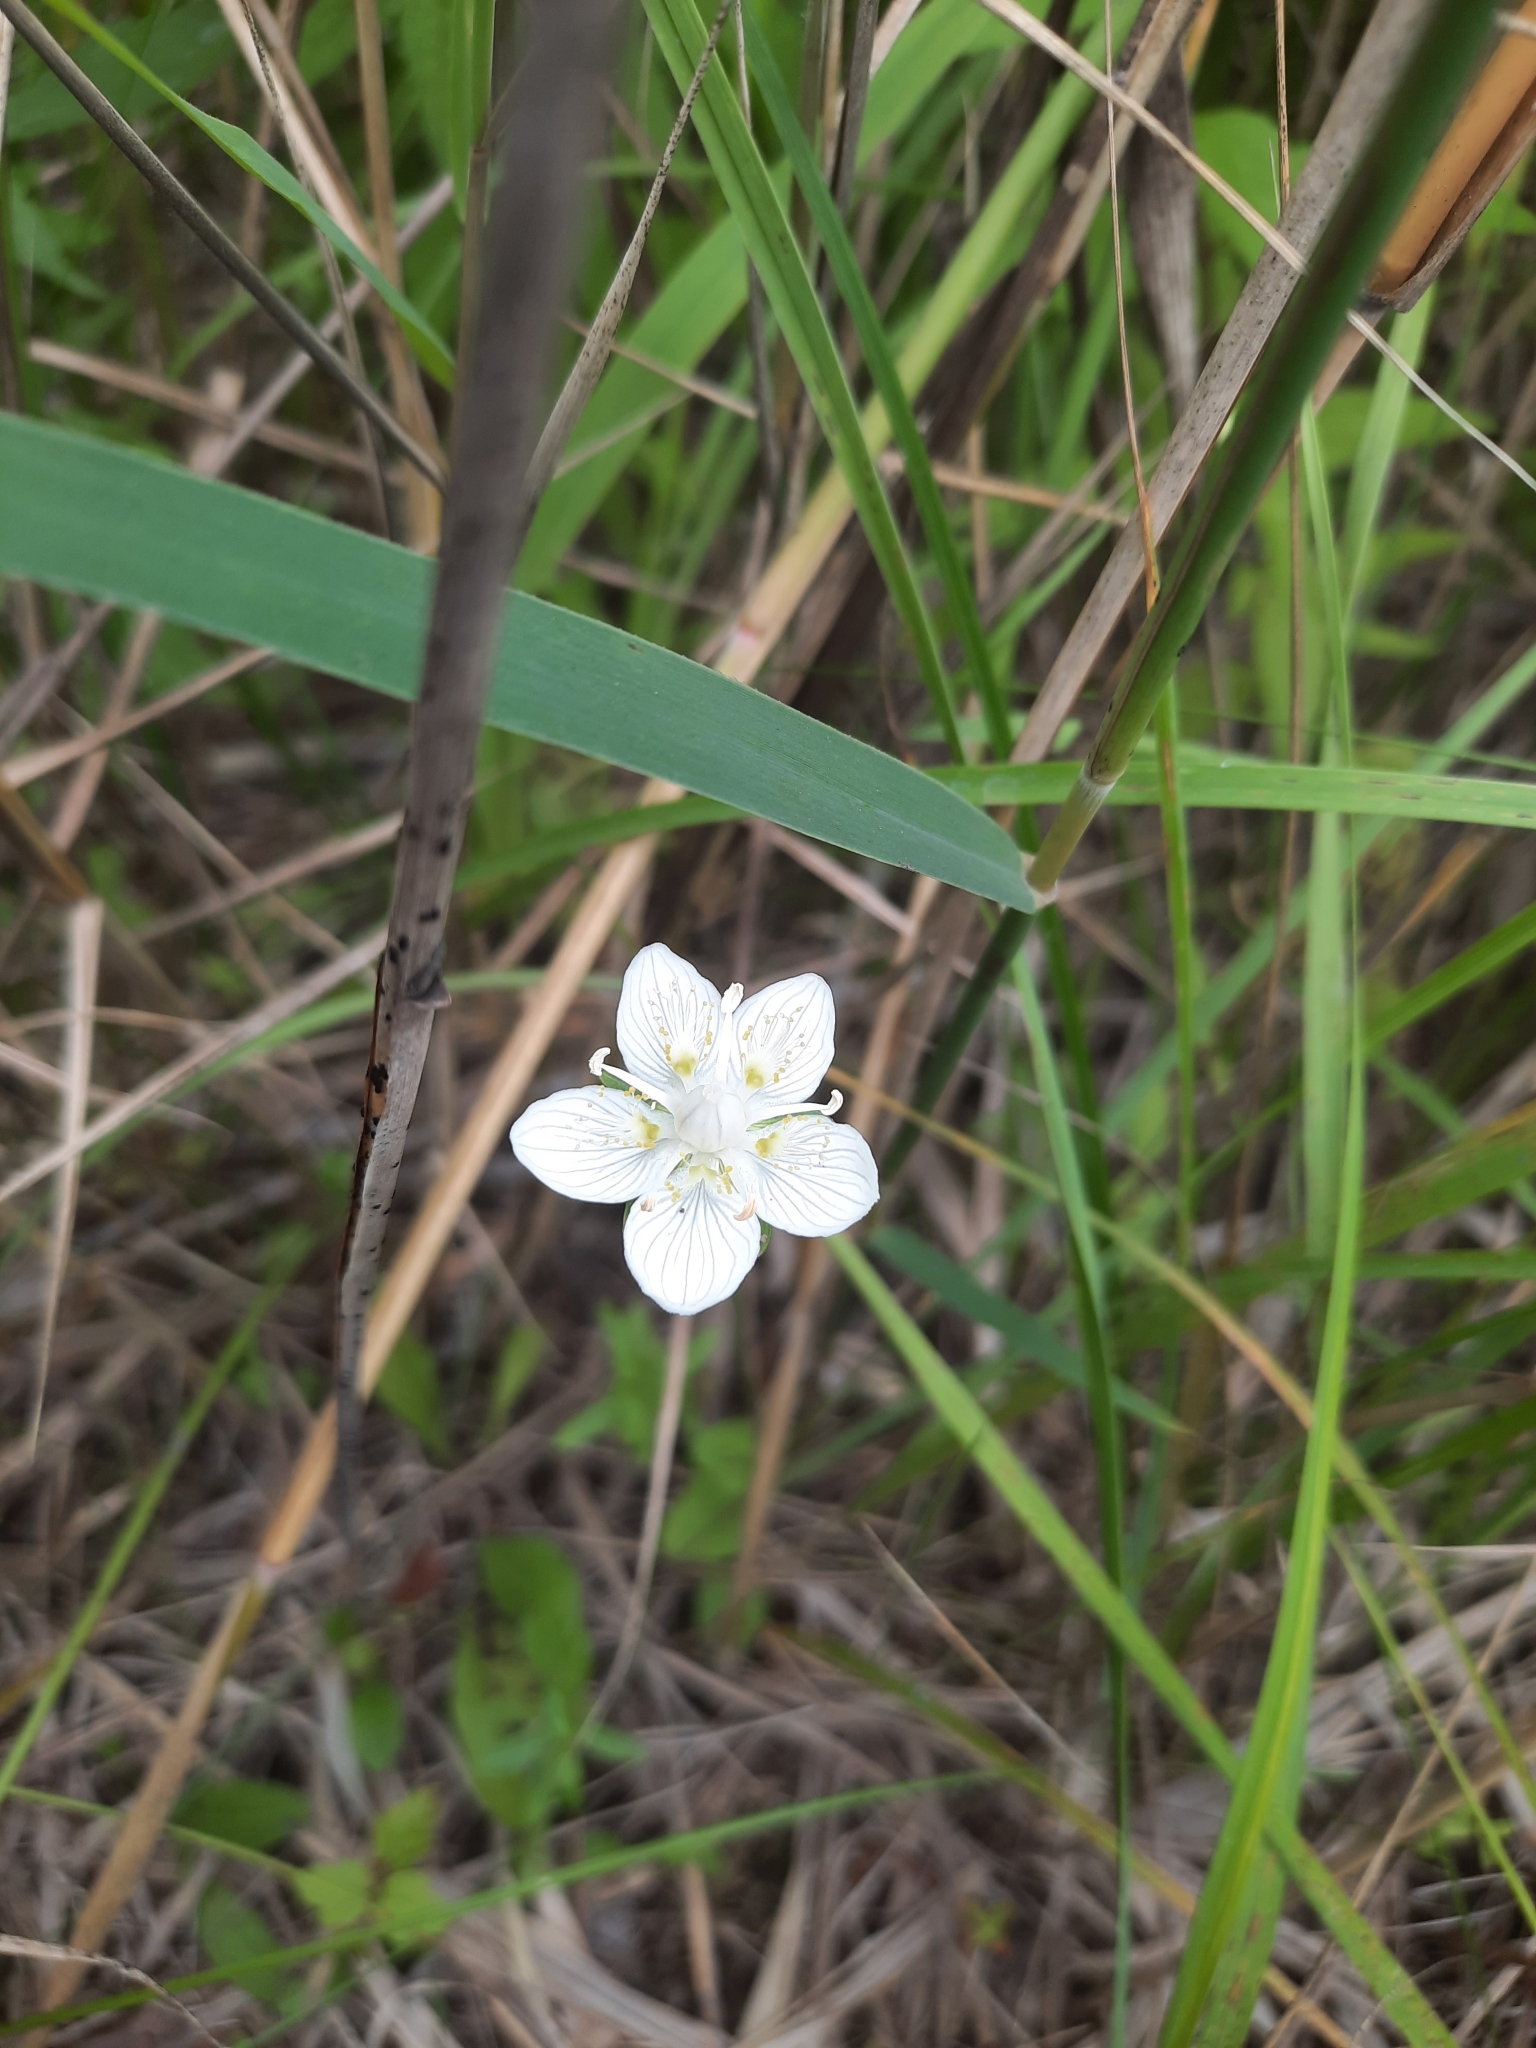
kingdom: Plantae
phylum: Tracheophyta
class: Magnoliopsida
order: Celastrales
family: Parnassiaceae
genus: Parnassia
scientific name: Parnassia palustris
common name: Grass-of-parnassus
